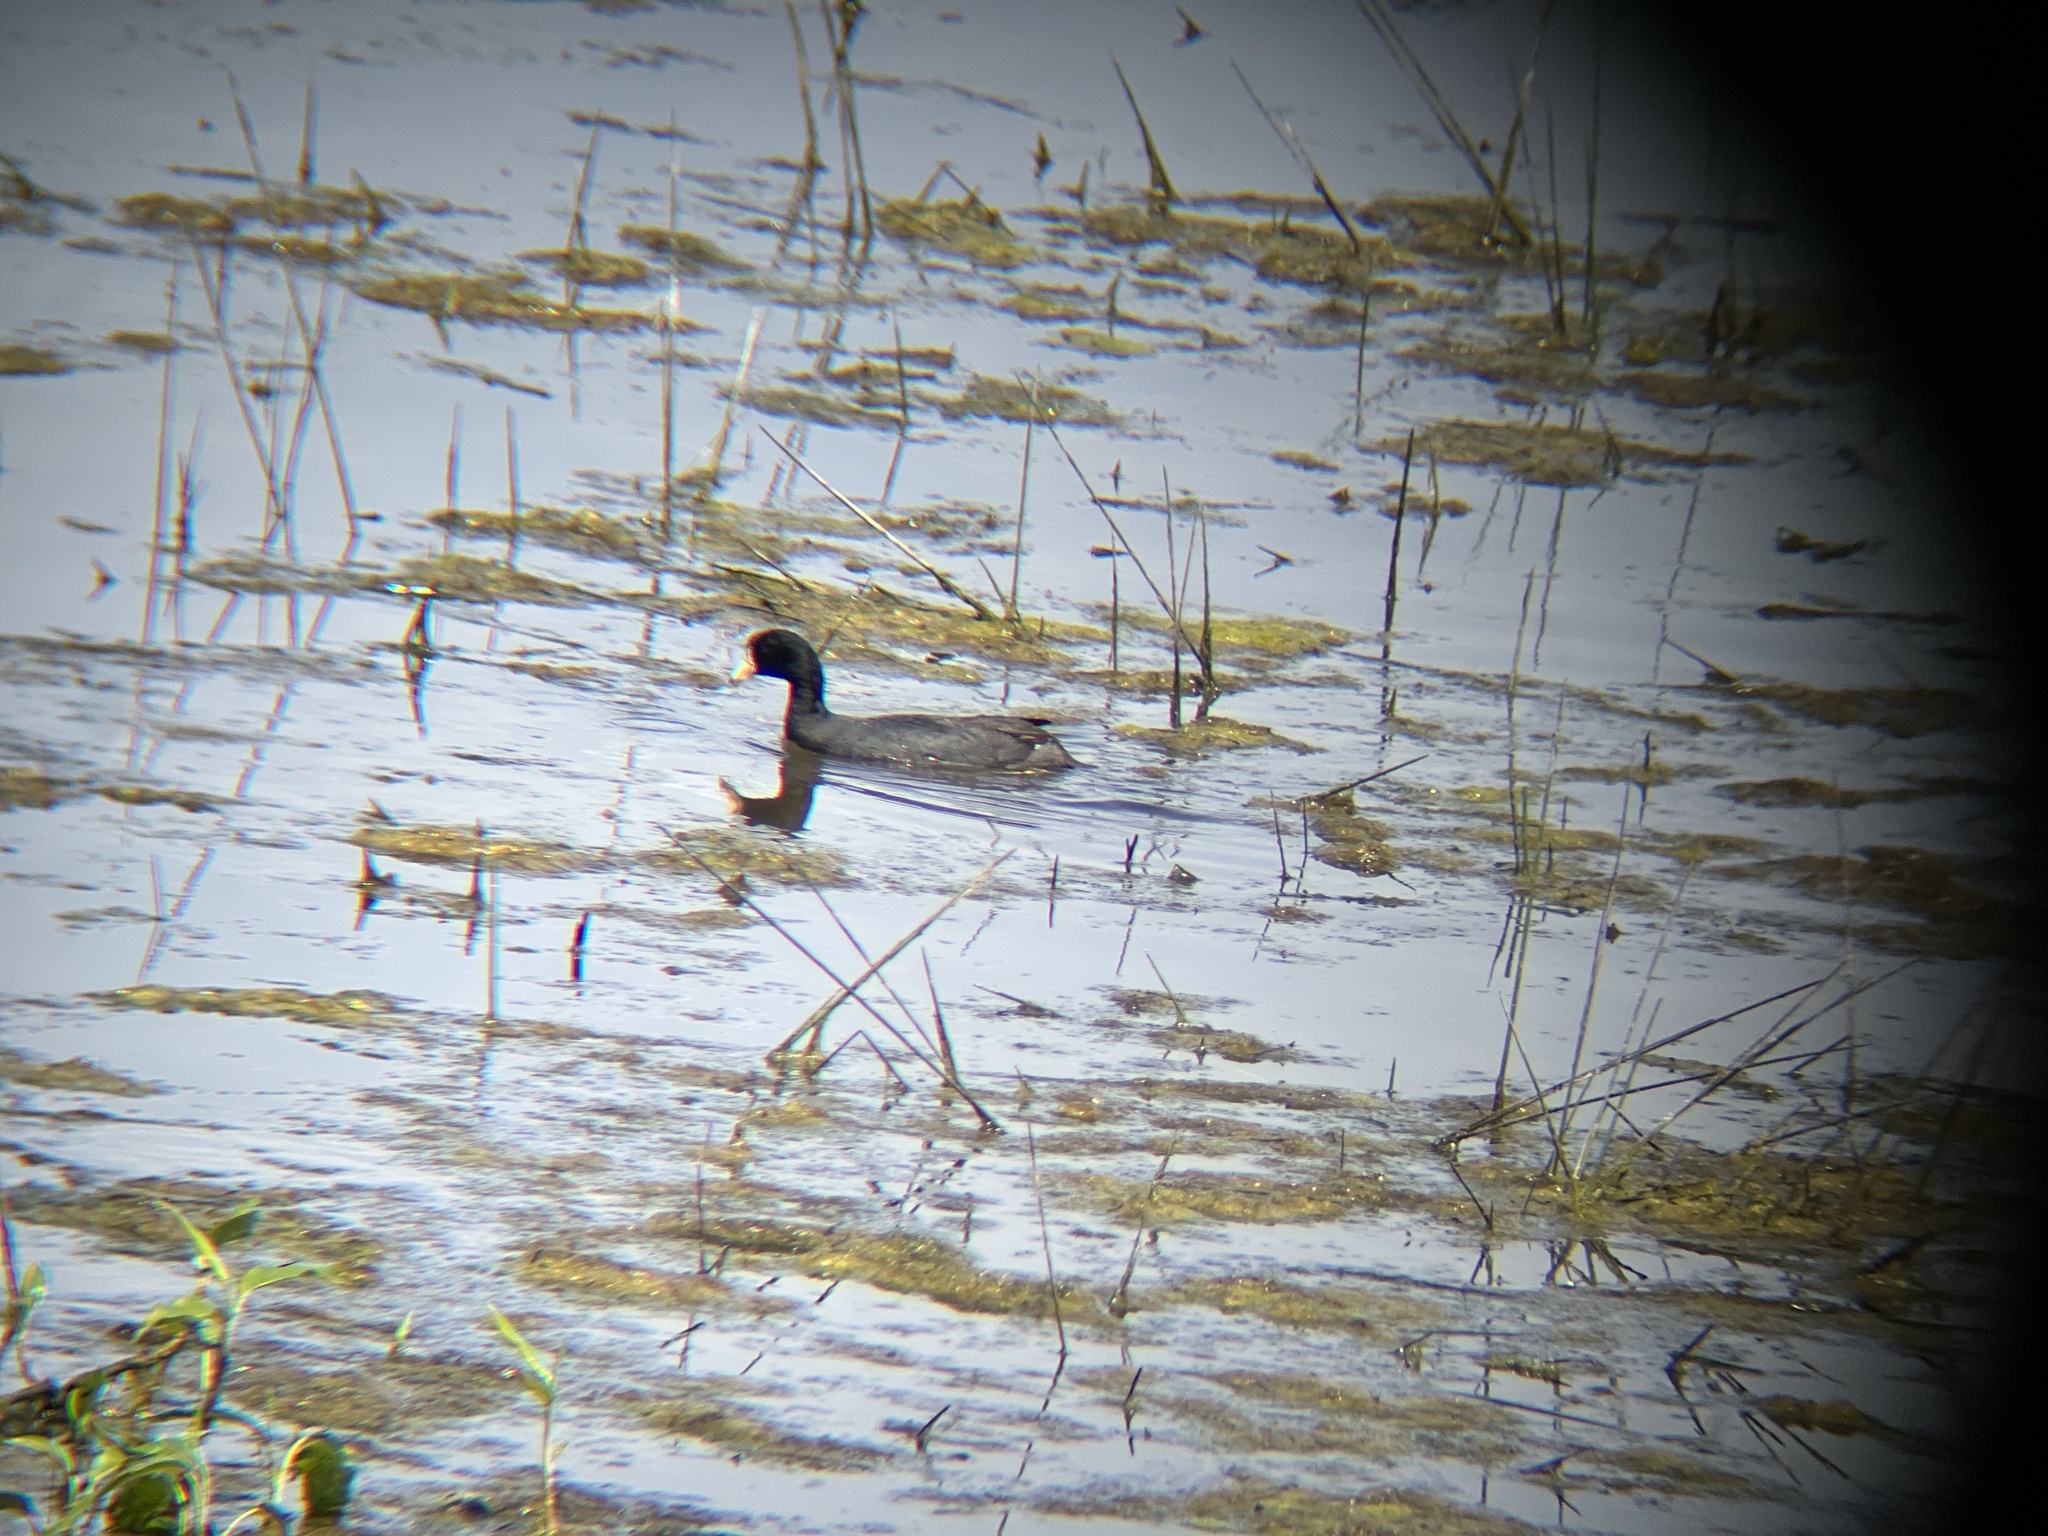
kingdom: Animalia
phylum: Chordata
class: Aves
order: Gruiformes
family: Rallidae
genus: Fulica
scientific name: Fulica americana
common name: American coot
